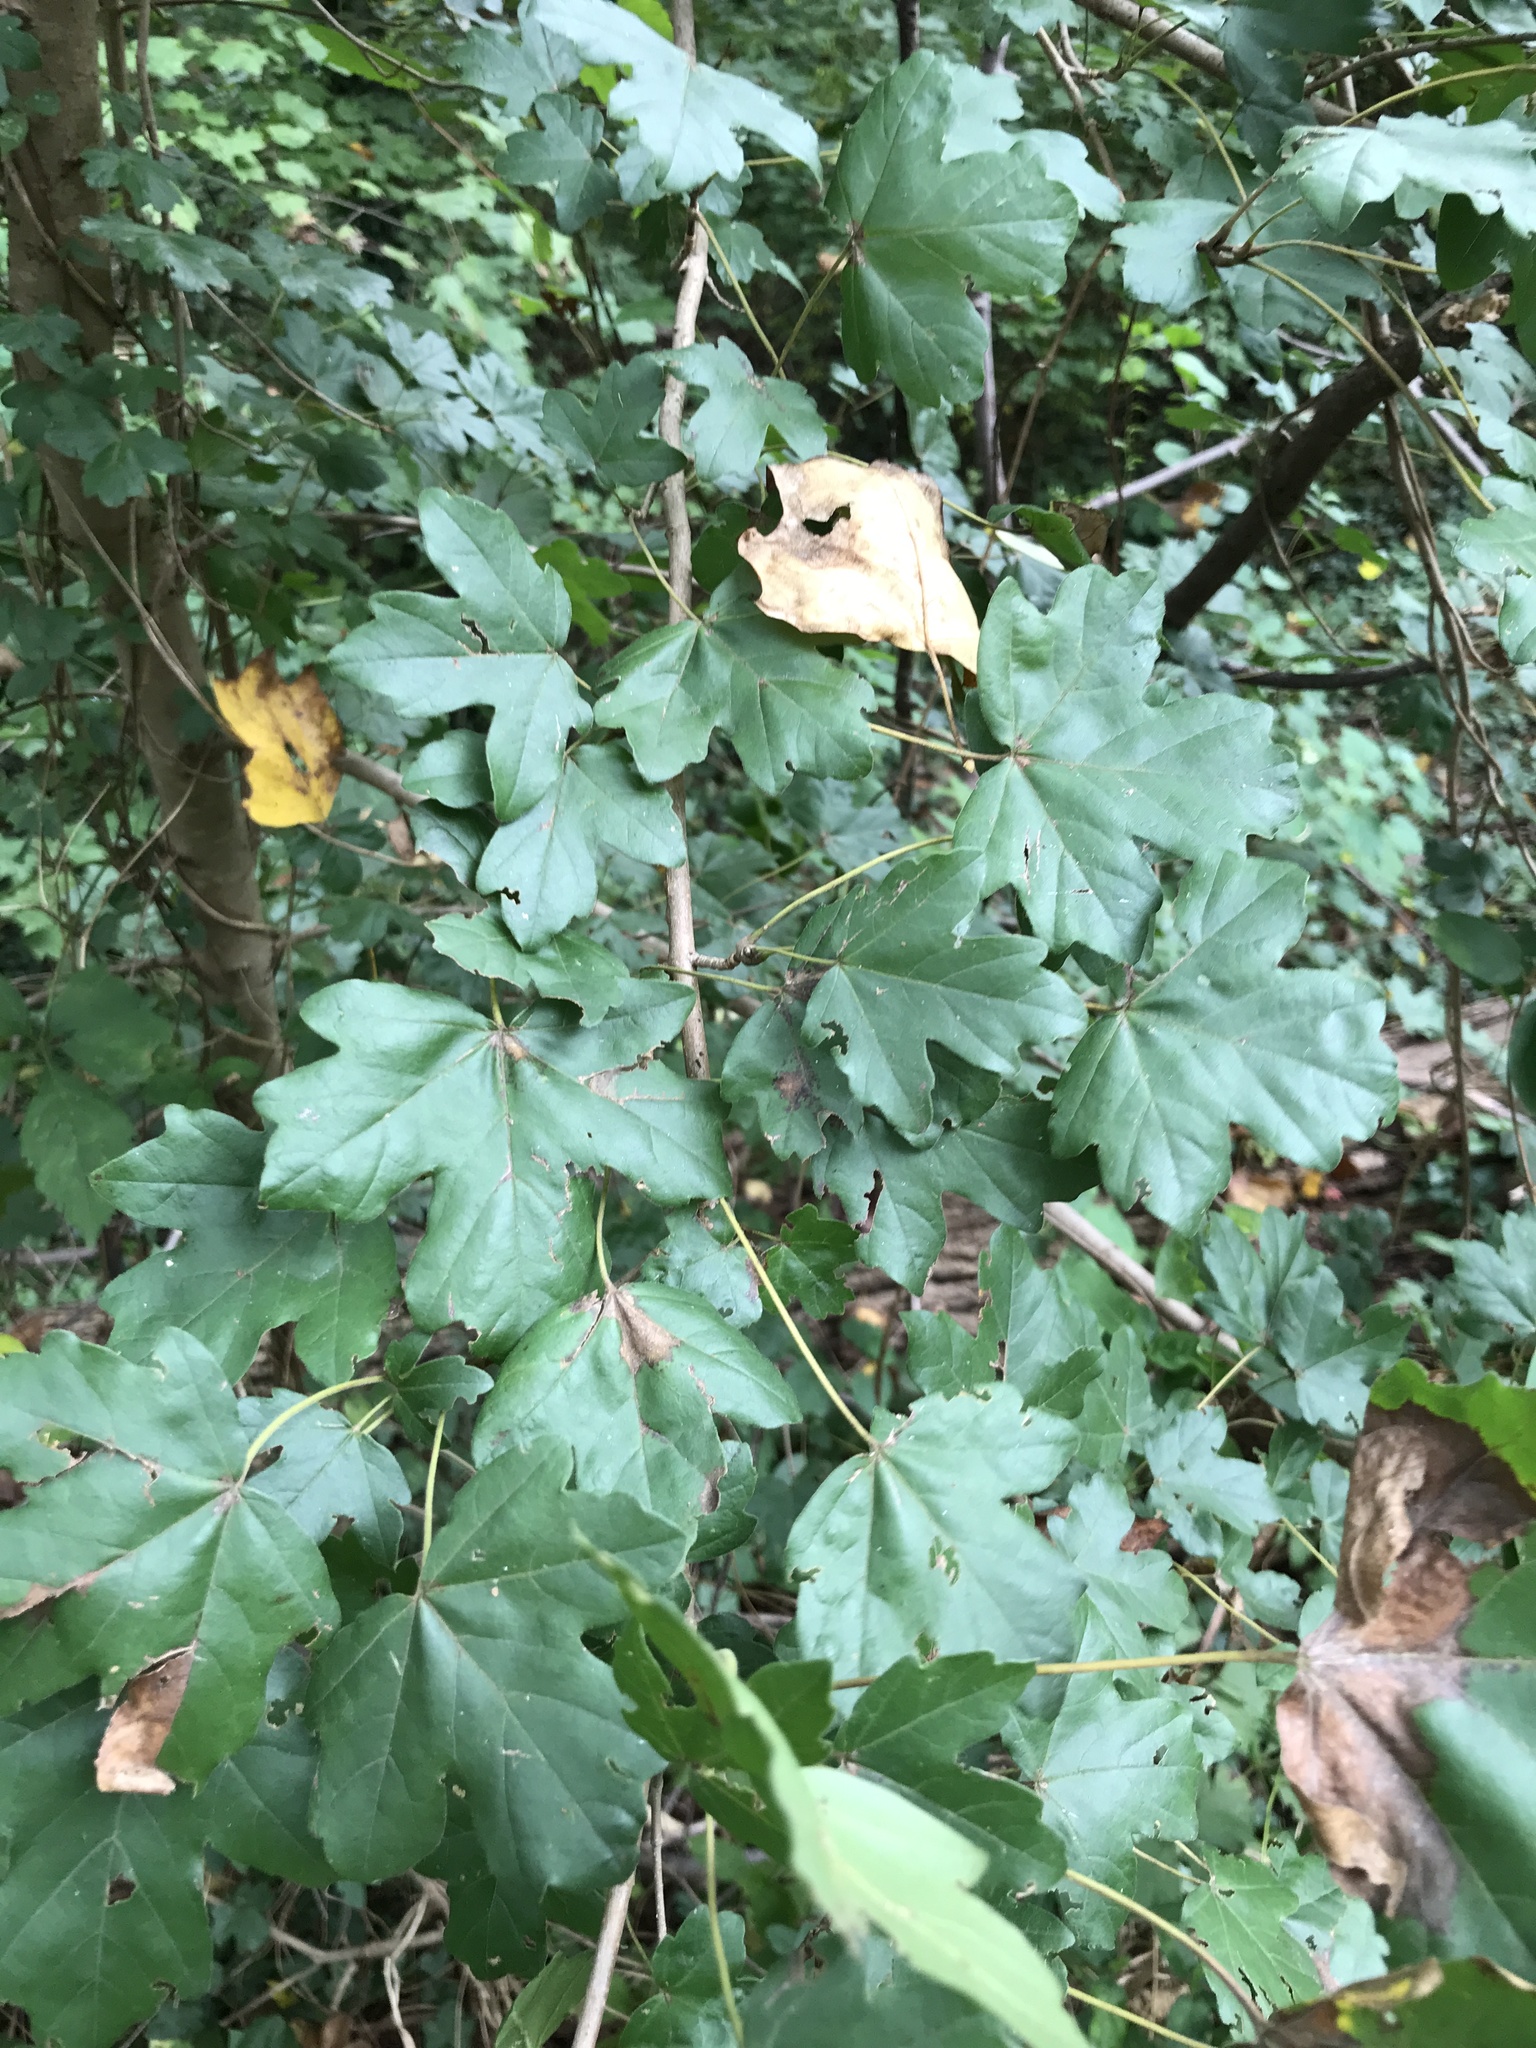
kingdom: Plantae
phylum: Tracheophyta
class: Magnoliopsida
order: Sapindales
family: Sapindaceae
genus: Acer
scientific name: Acer campestre
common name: Field maple
